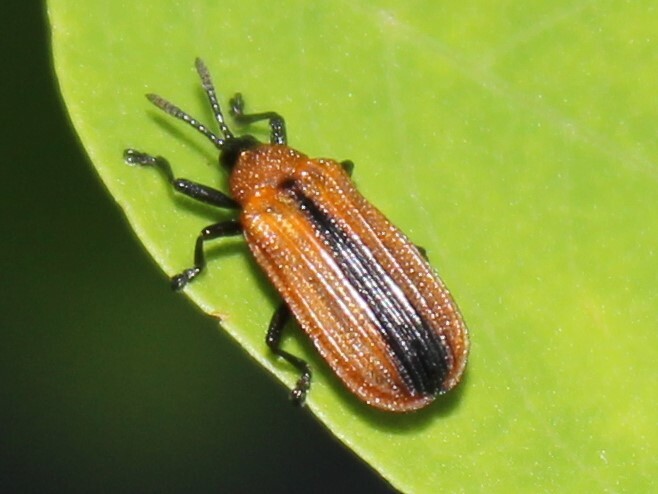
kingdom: Animalia
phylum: Arthropoda
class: Insecta
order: Coleoptera
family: Chrysomelidae
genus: Odontota
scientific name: Odontota dorsalis
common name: Locust leaf-miner beetle
